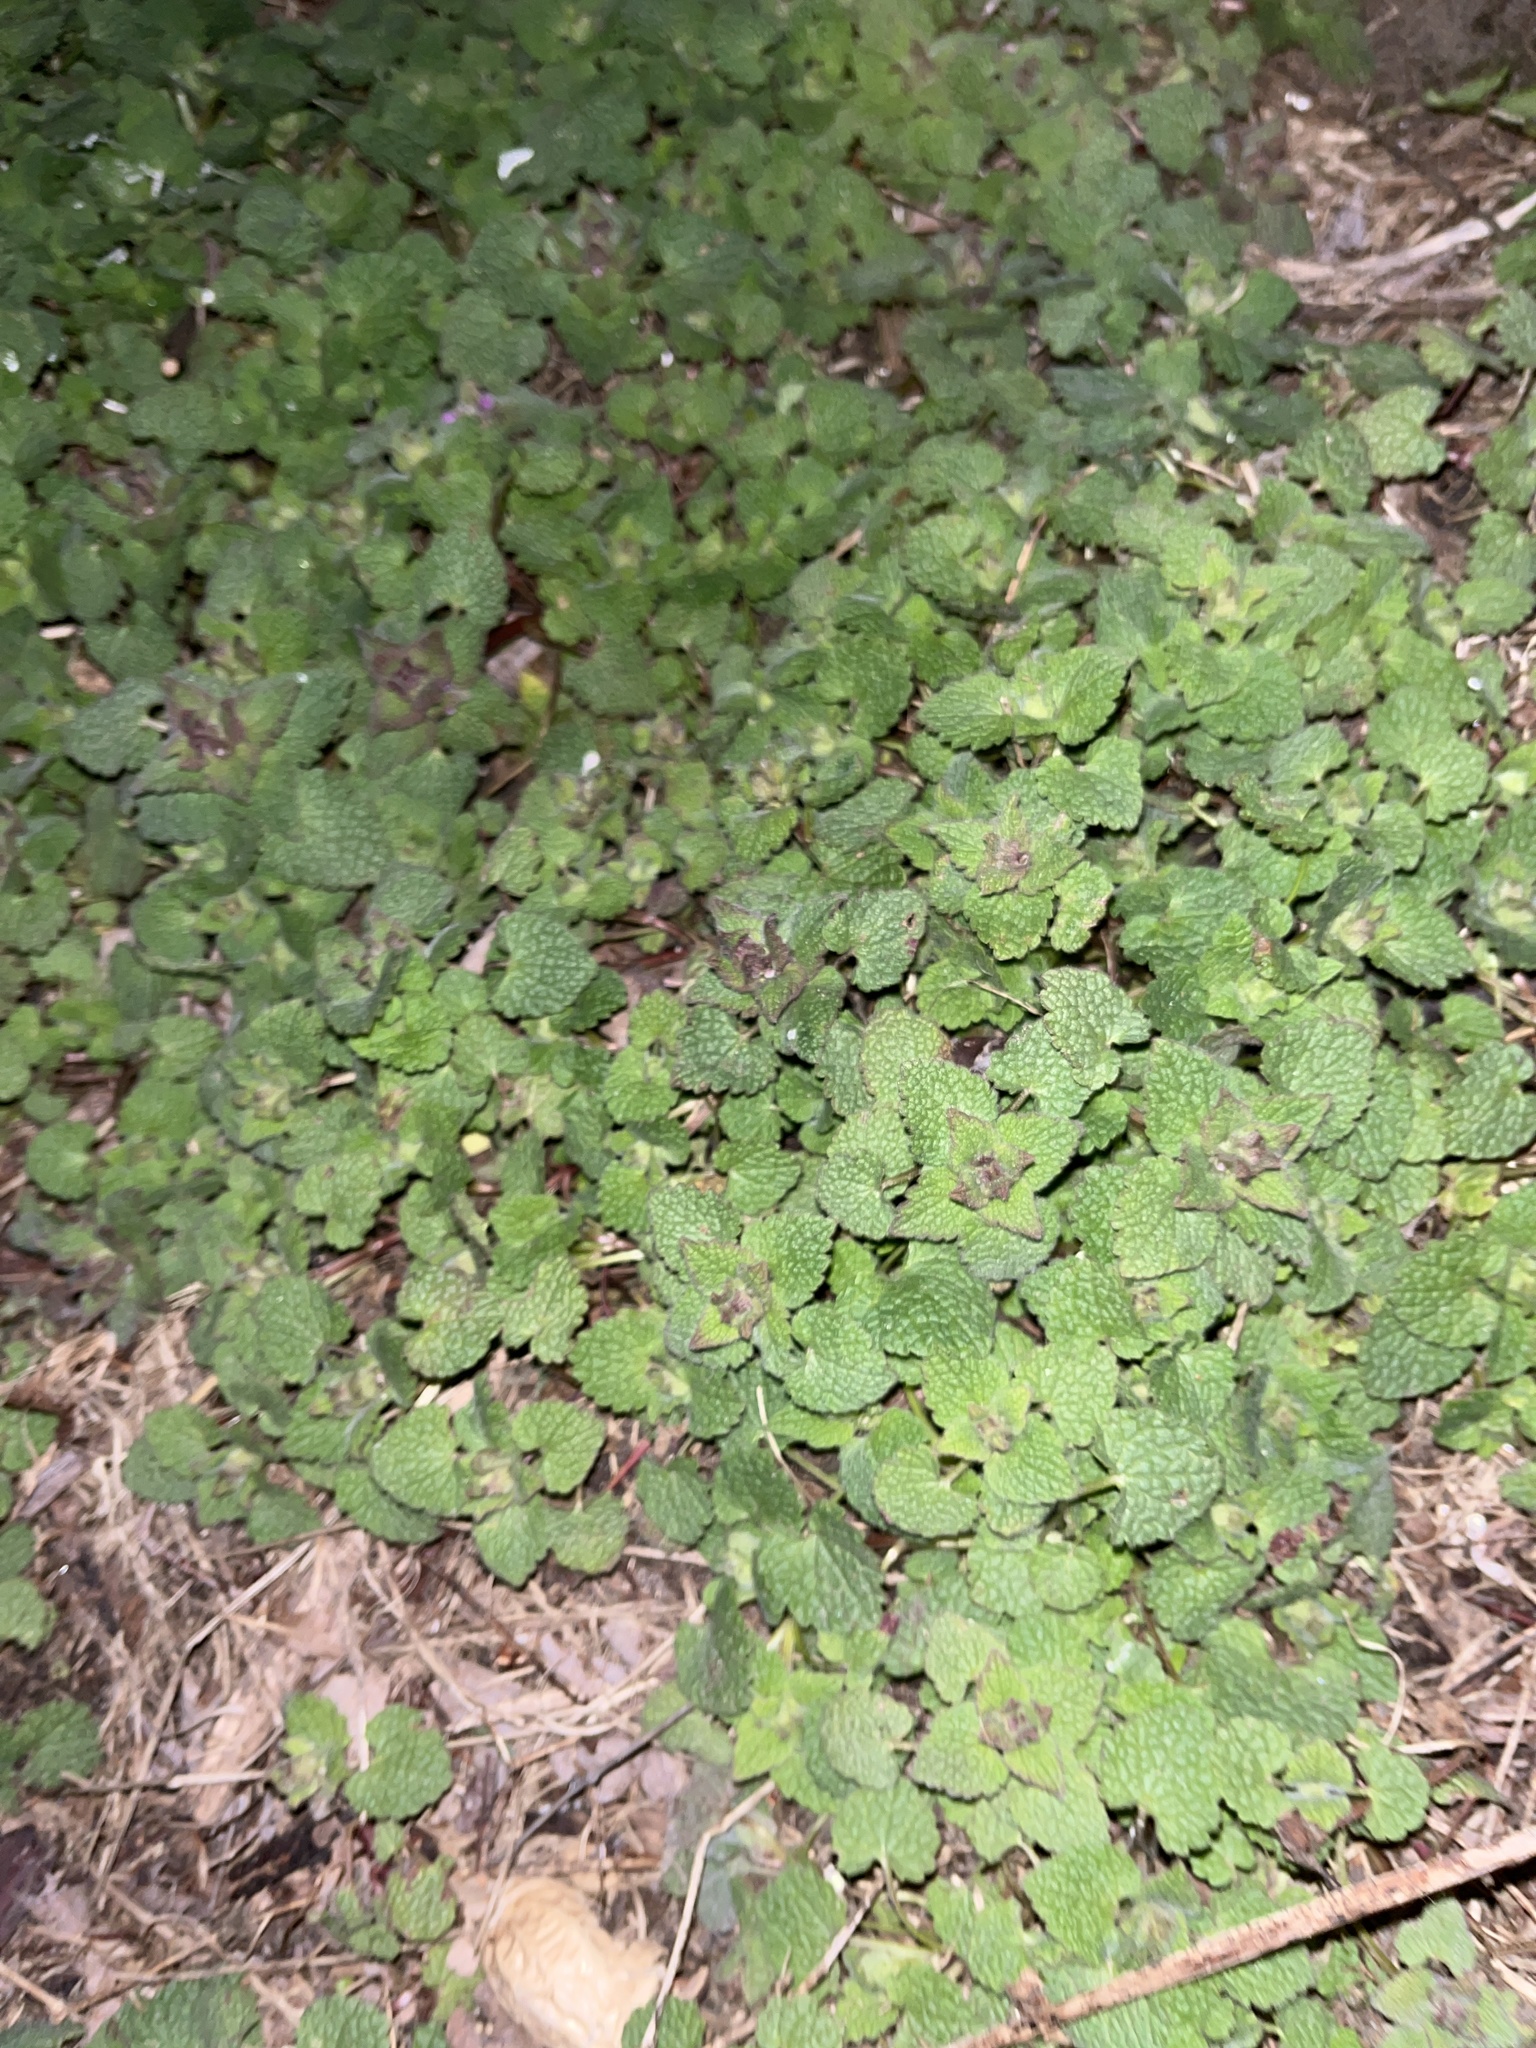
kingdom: Plantae
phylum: Tracheophyta
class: Magnoliopsida
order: Lamiales
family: Lamiaceae
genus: Lamium
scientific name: Lamium purpureum
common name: Red dead-nettle
